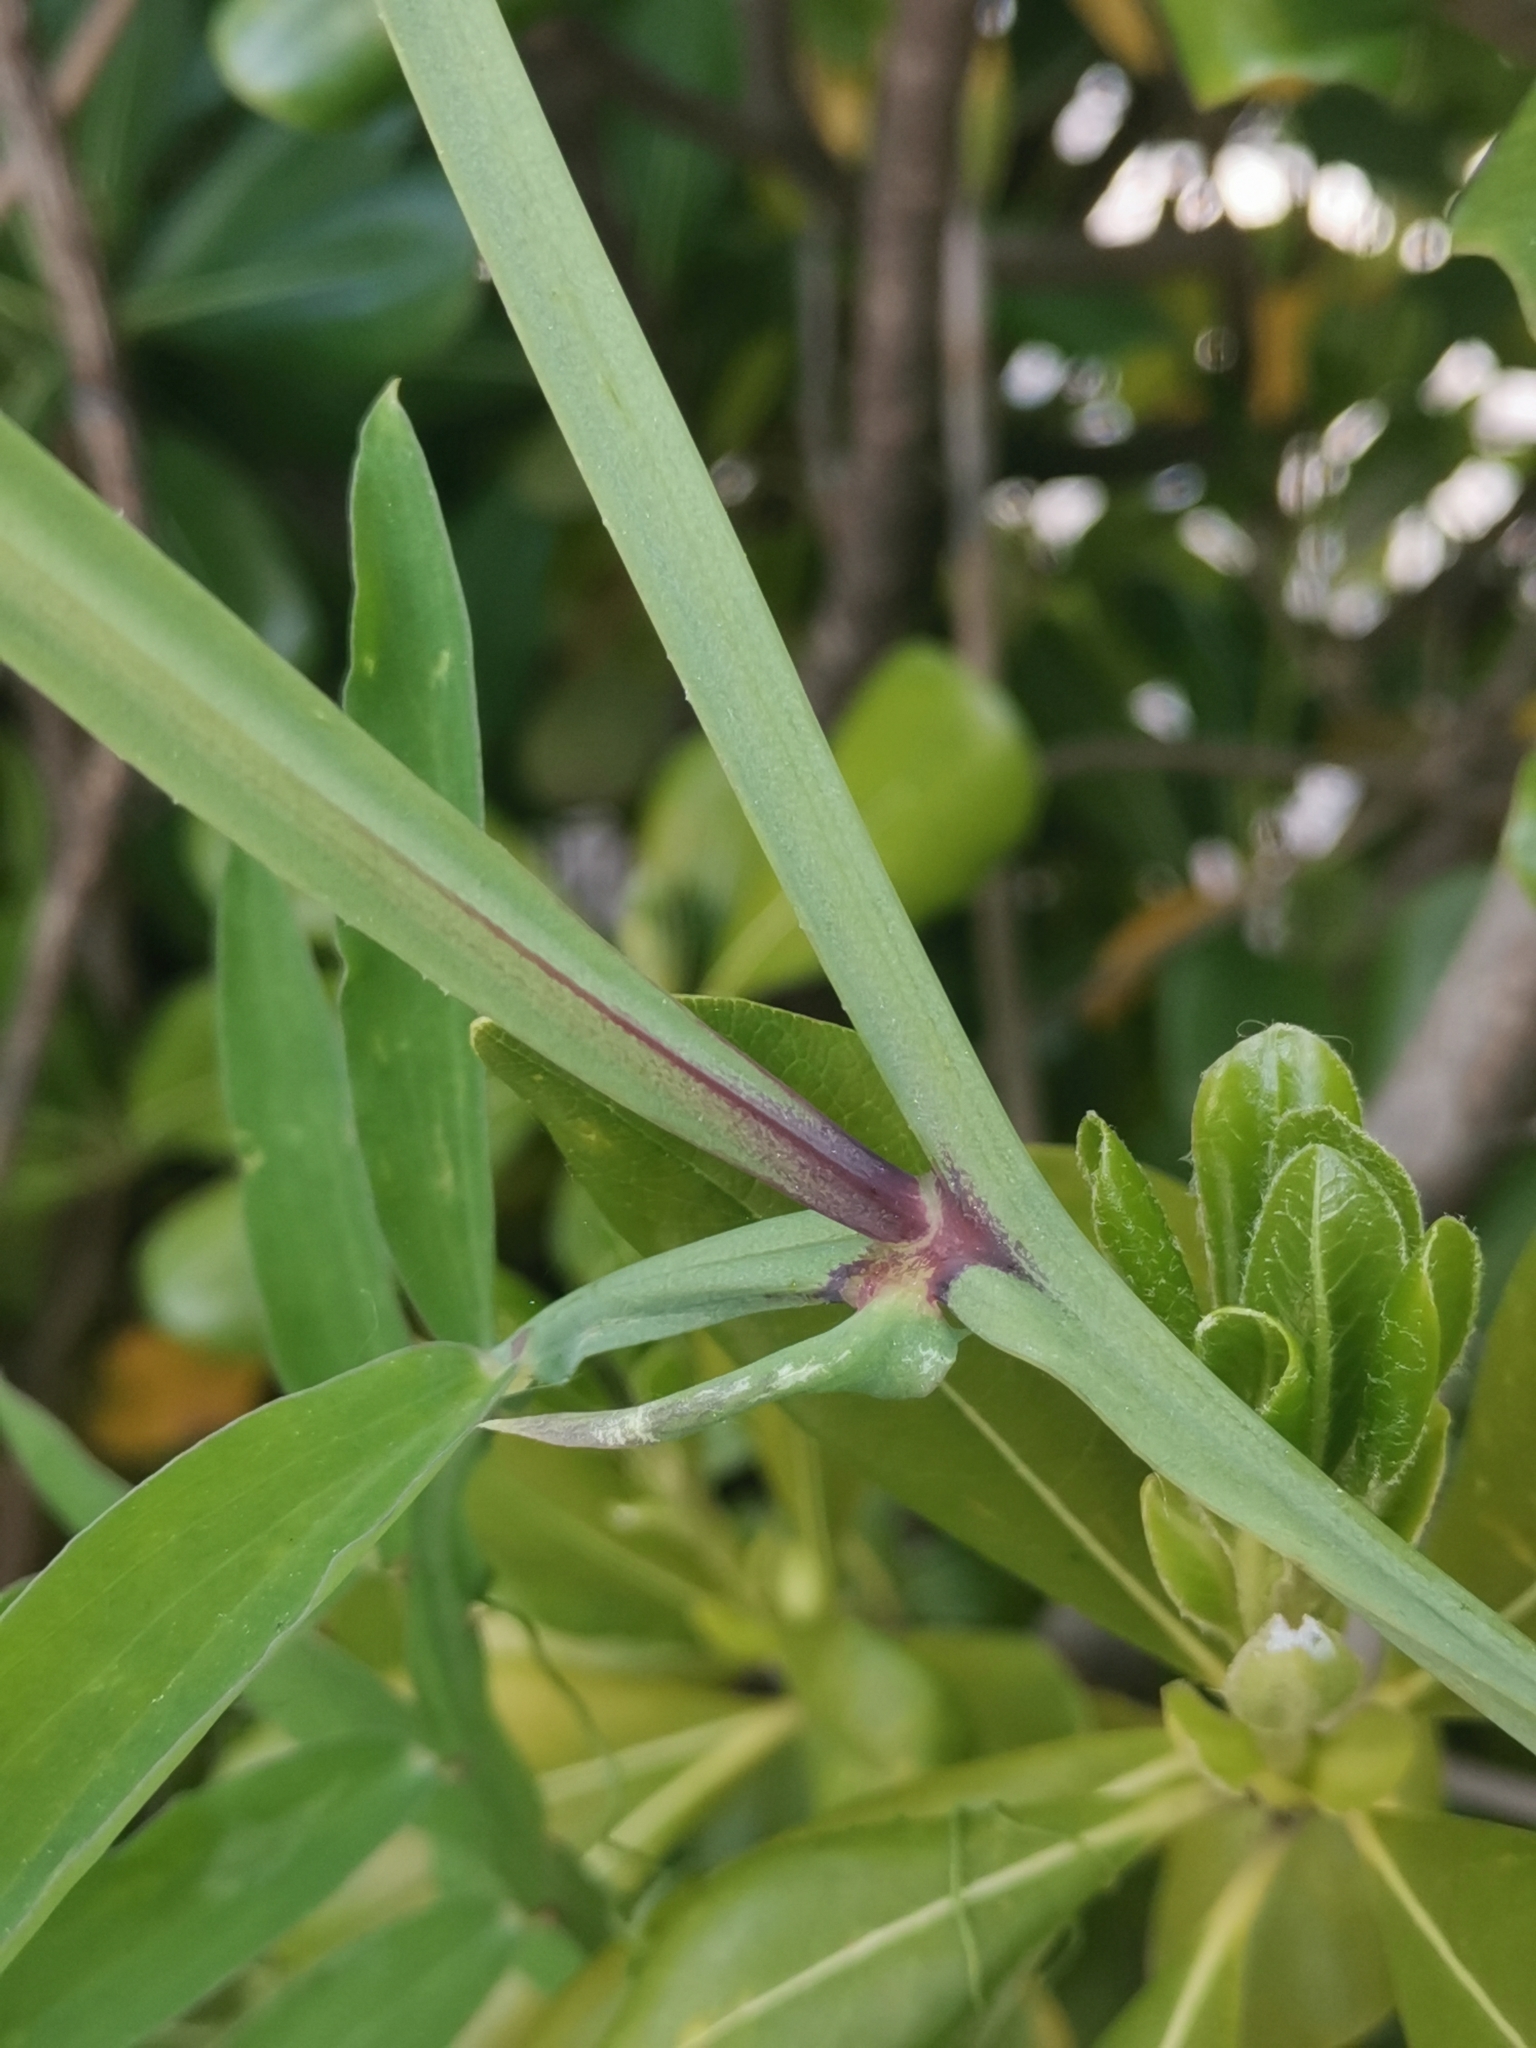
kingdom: Plantae
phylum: Tracheophyta
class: Magnoliopsida
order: Fabales
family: Fabaceae
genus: Lathyrus
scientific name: Lathyrus clymenum
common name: Spanish vetchling
